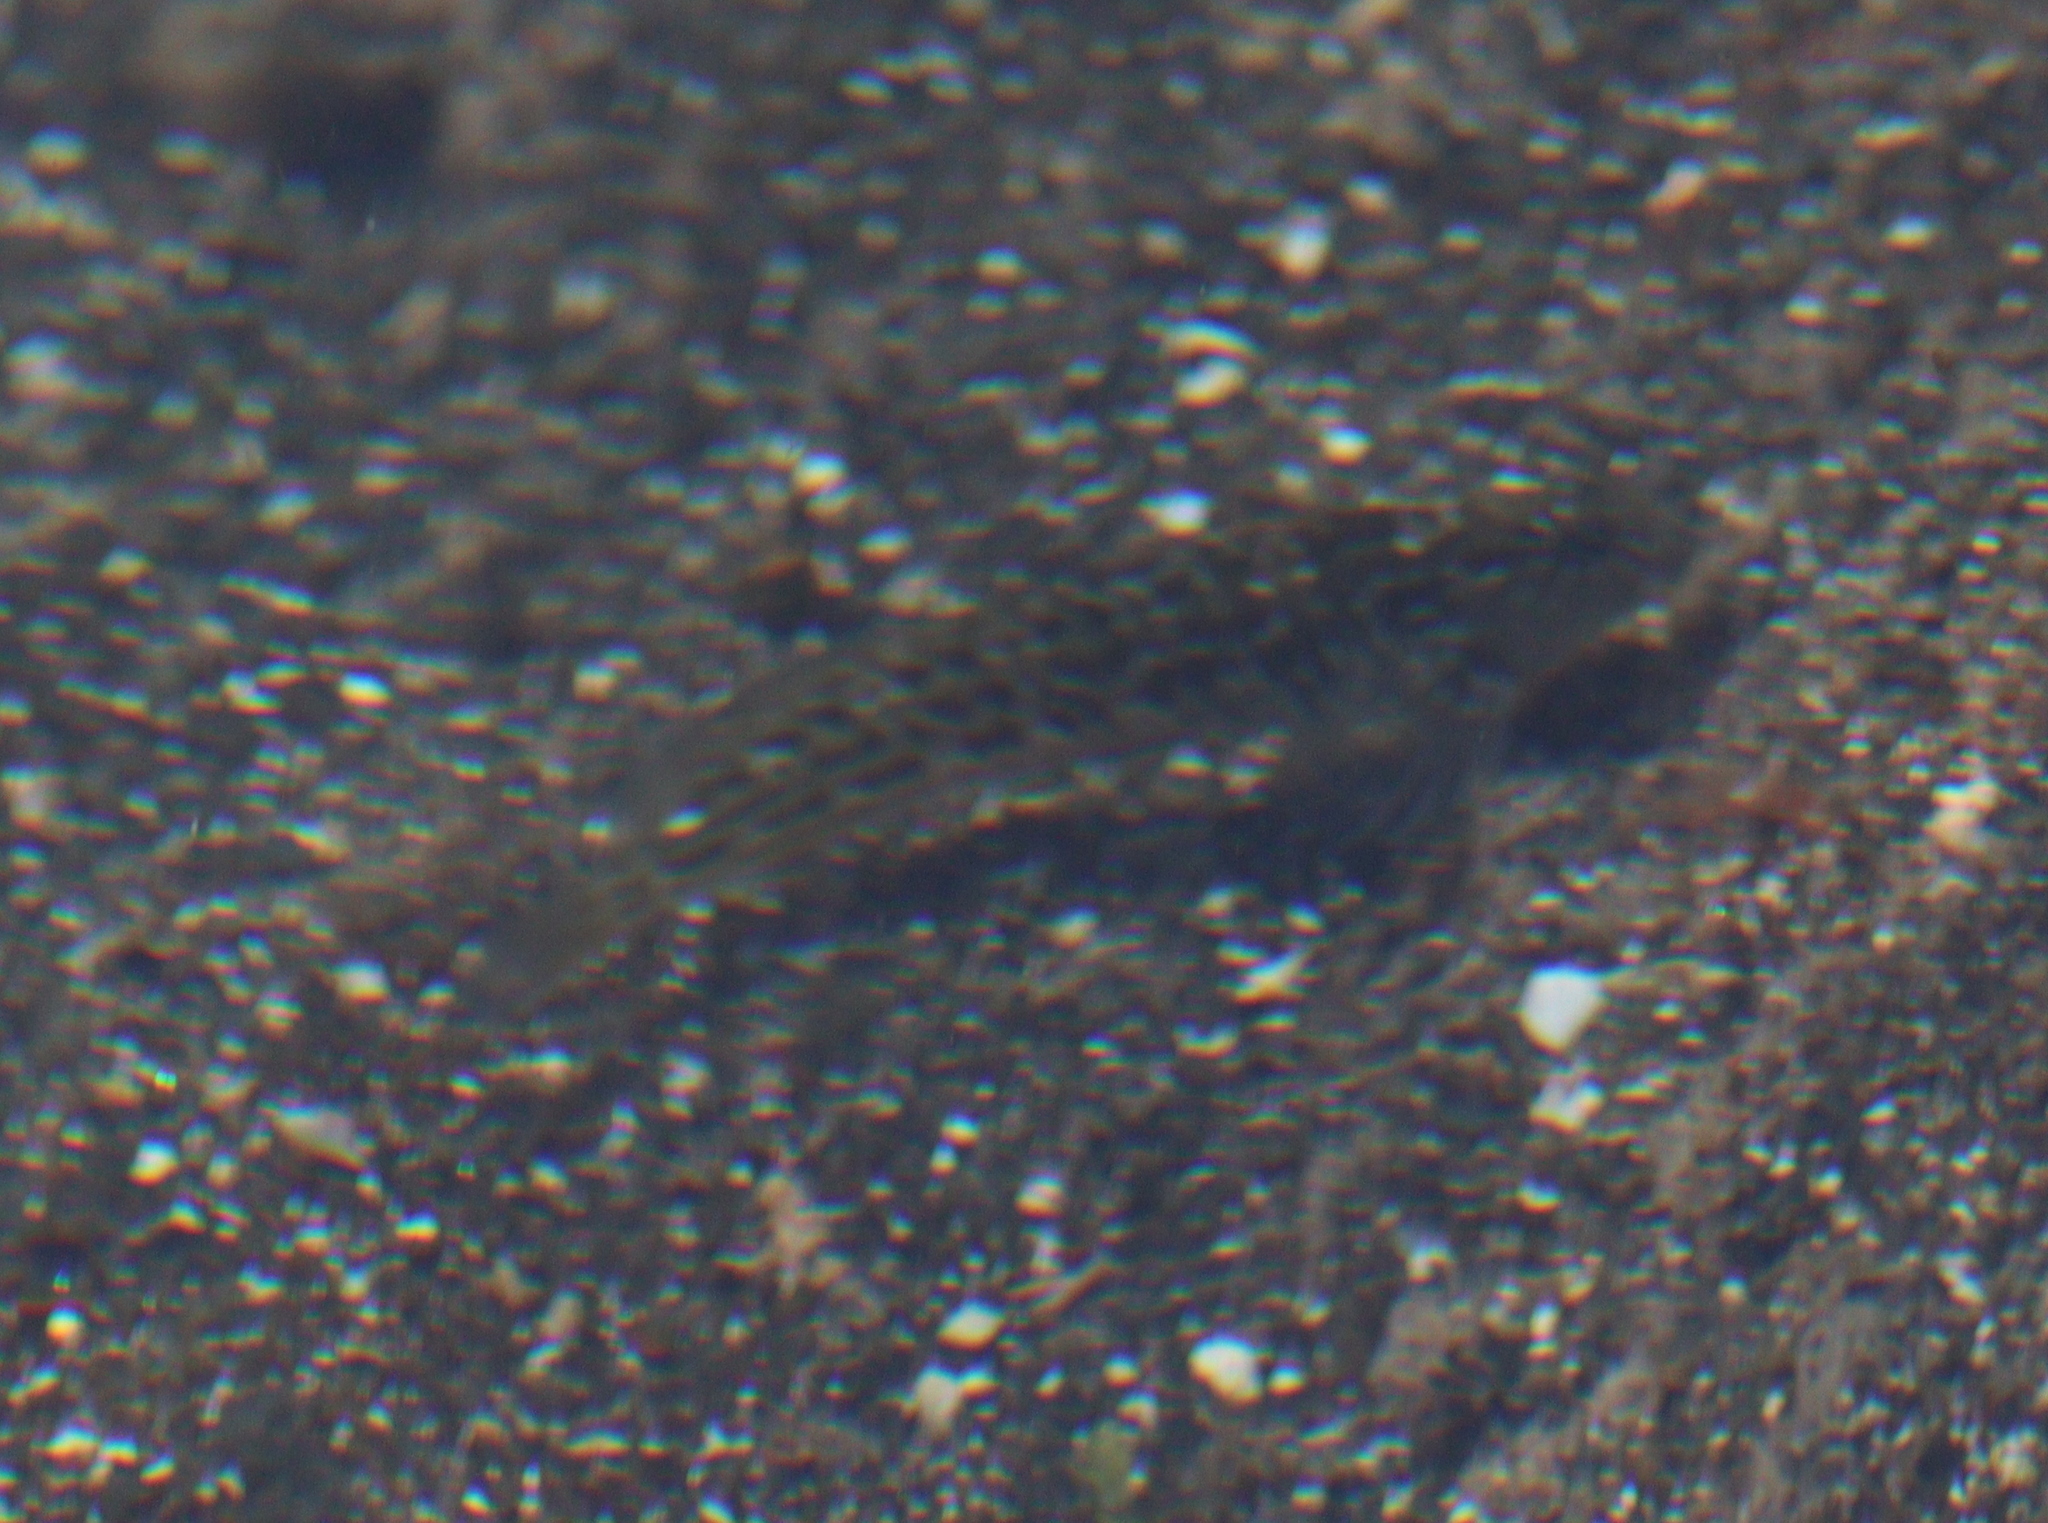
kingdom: Animalia
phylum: Chordata
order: Perciformes
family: Blenniidae
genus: Parablennius
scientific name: Parablennius parvicornis
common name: Rock-pool blenny
